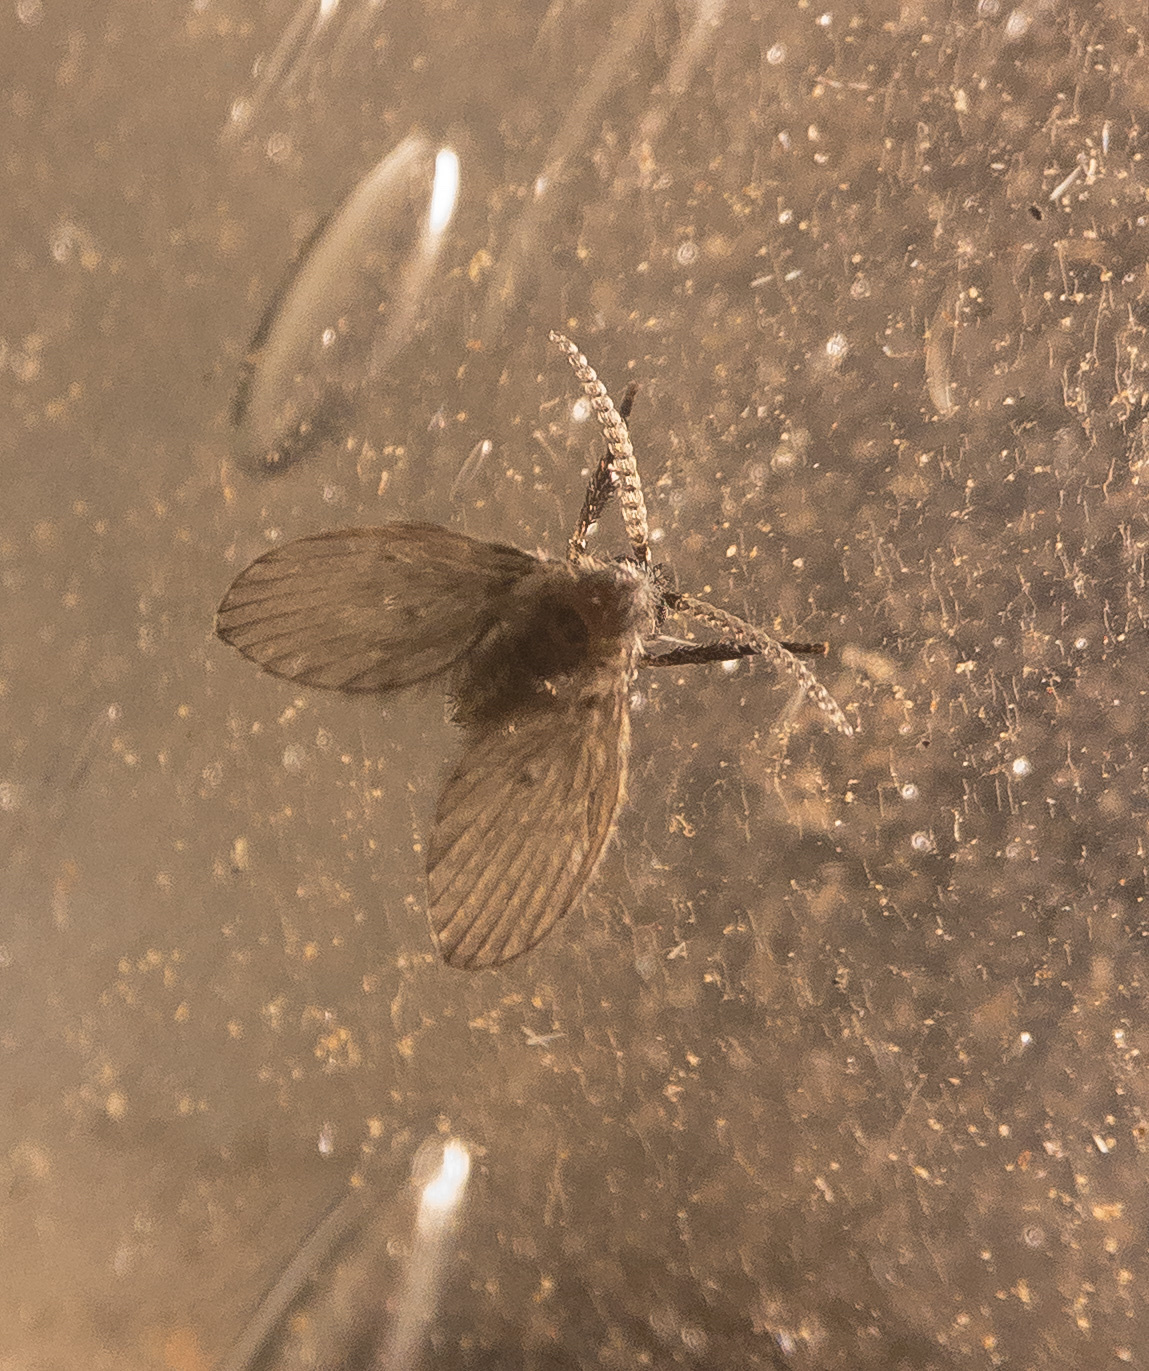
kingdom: Animalia
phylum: Arthropoda
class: Insecta
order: Diptera
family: Psychodidae
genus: Clogmia
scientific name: Clogmia albipunctatus
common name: White-spotted moth fly
